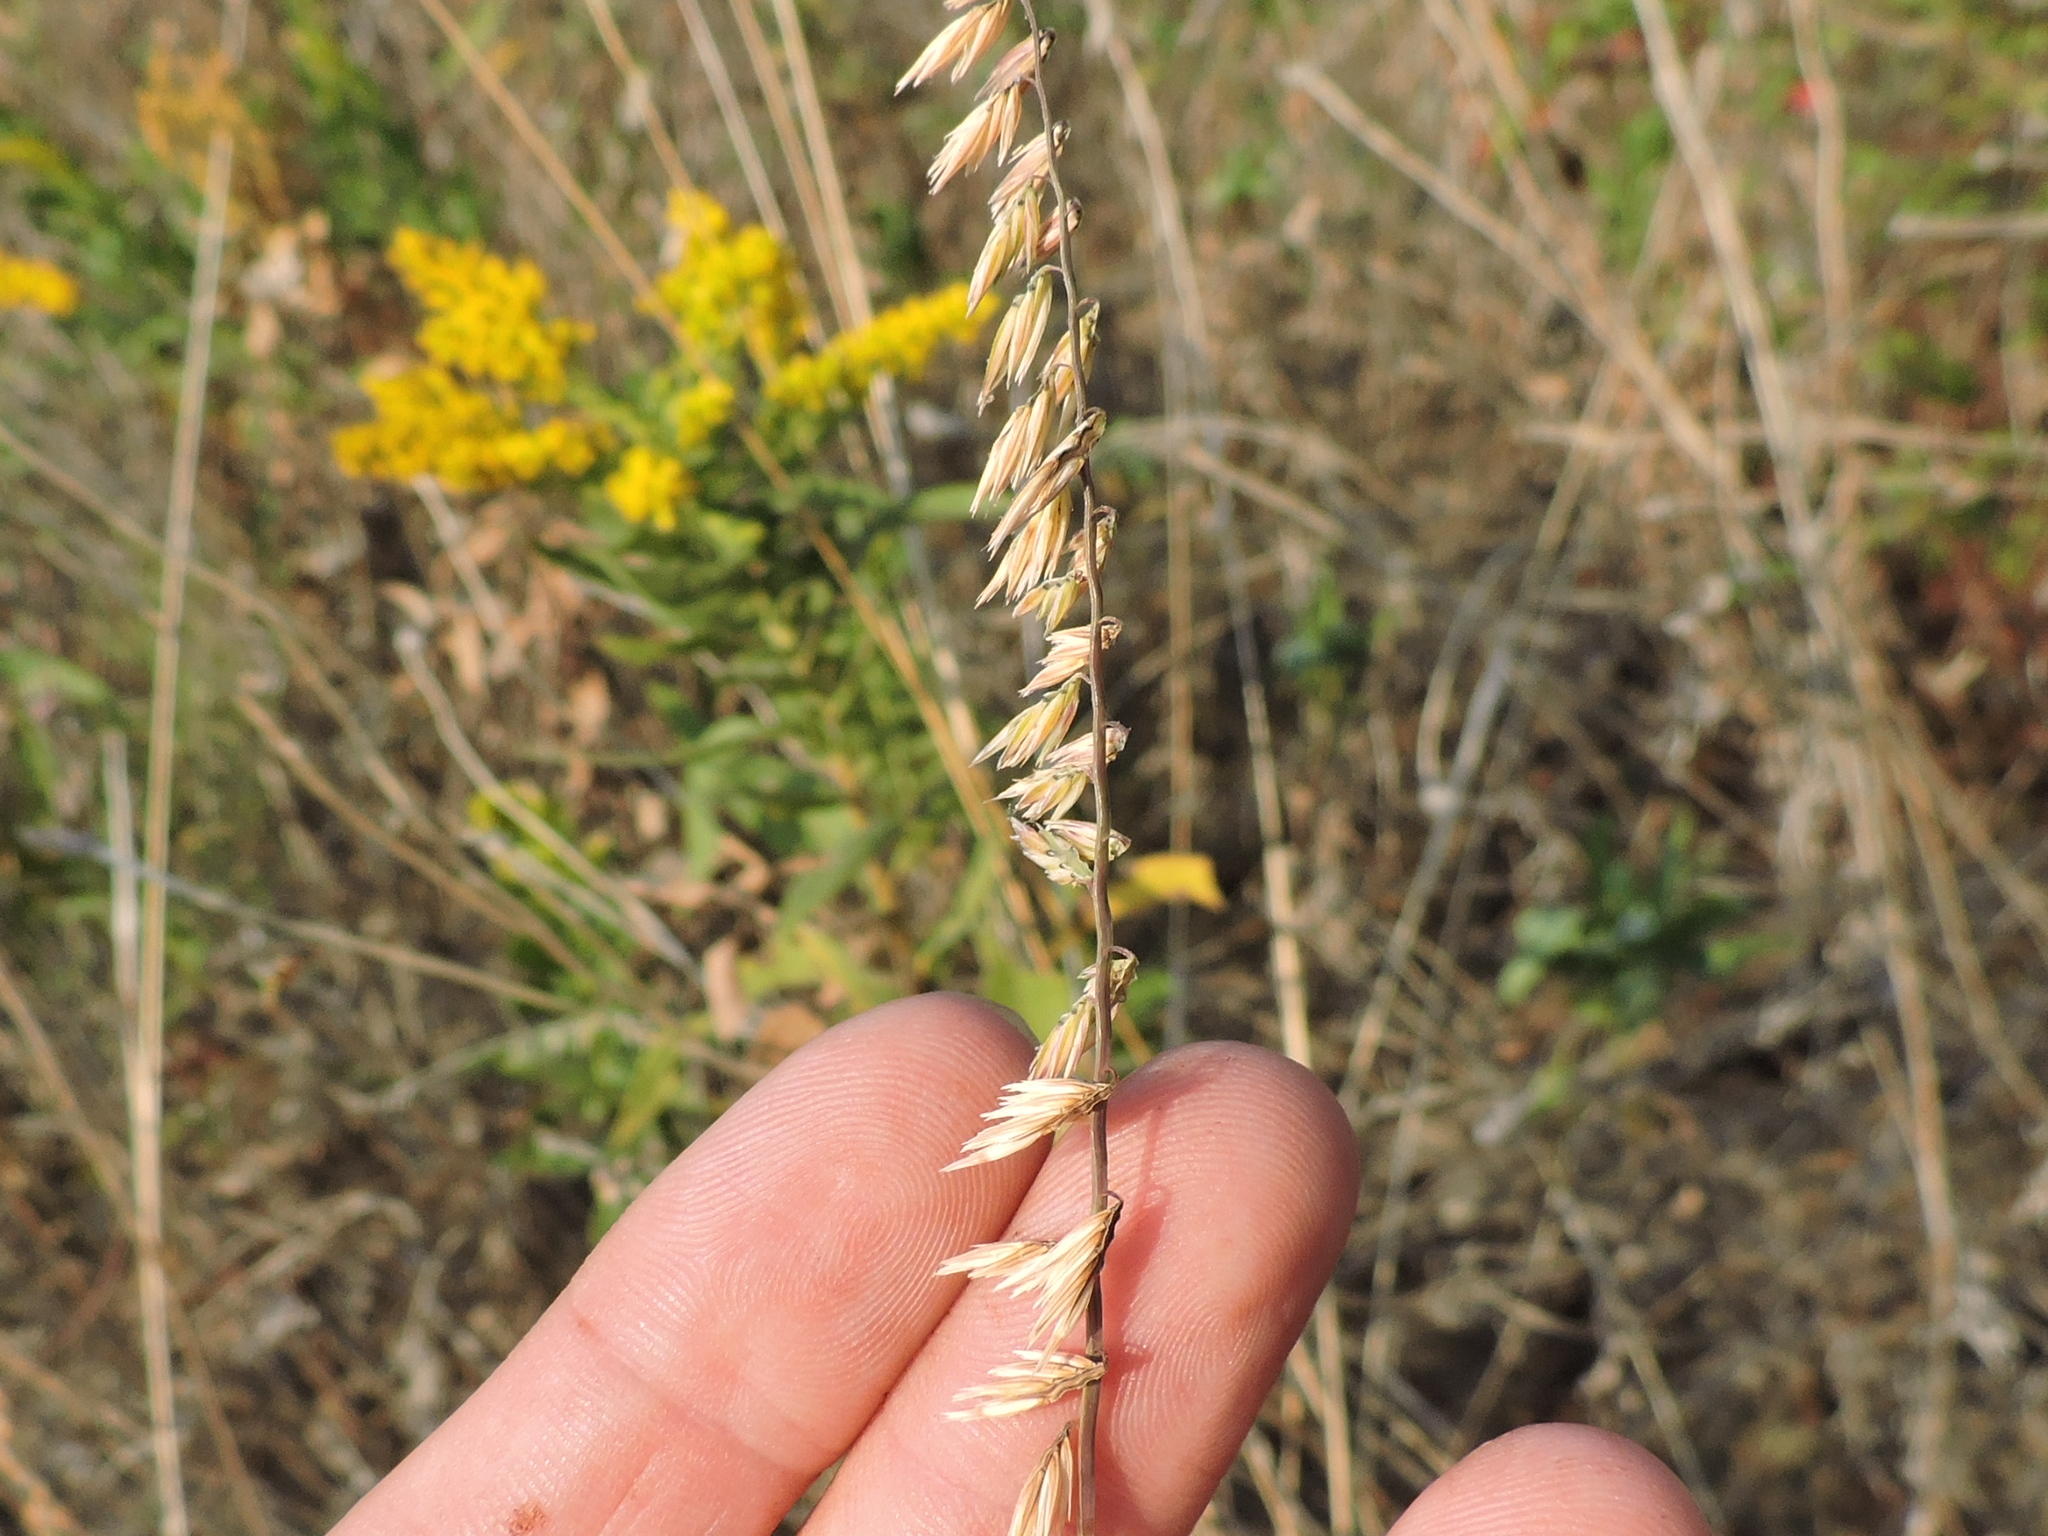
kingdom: Plantae
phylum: Tracheophyta
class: Liliopsida
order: Poales
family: Poaceae
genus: Bouteloua
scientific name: Bouteloua curtipendula
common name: Side-oats grama
